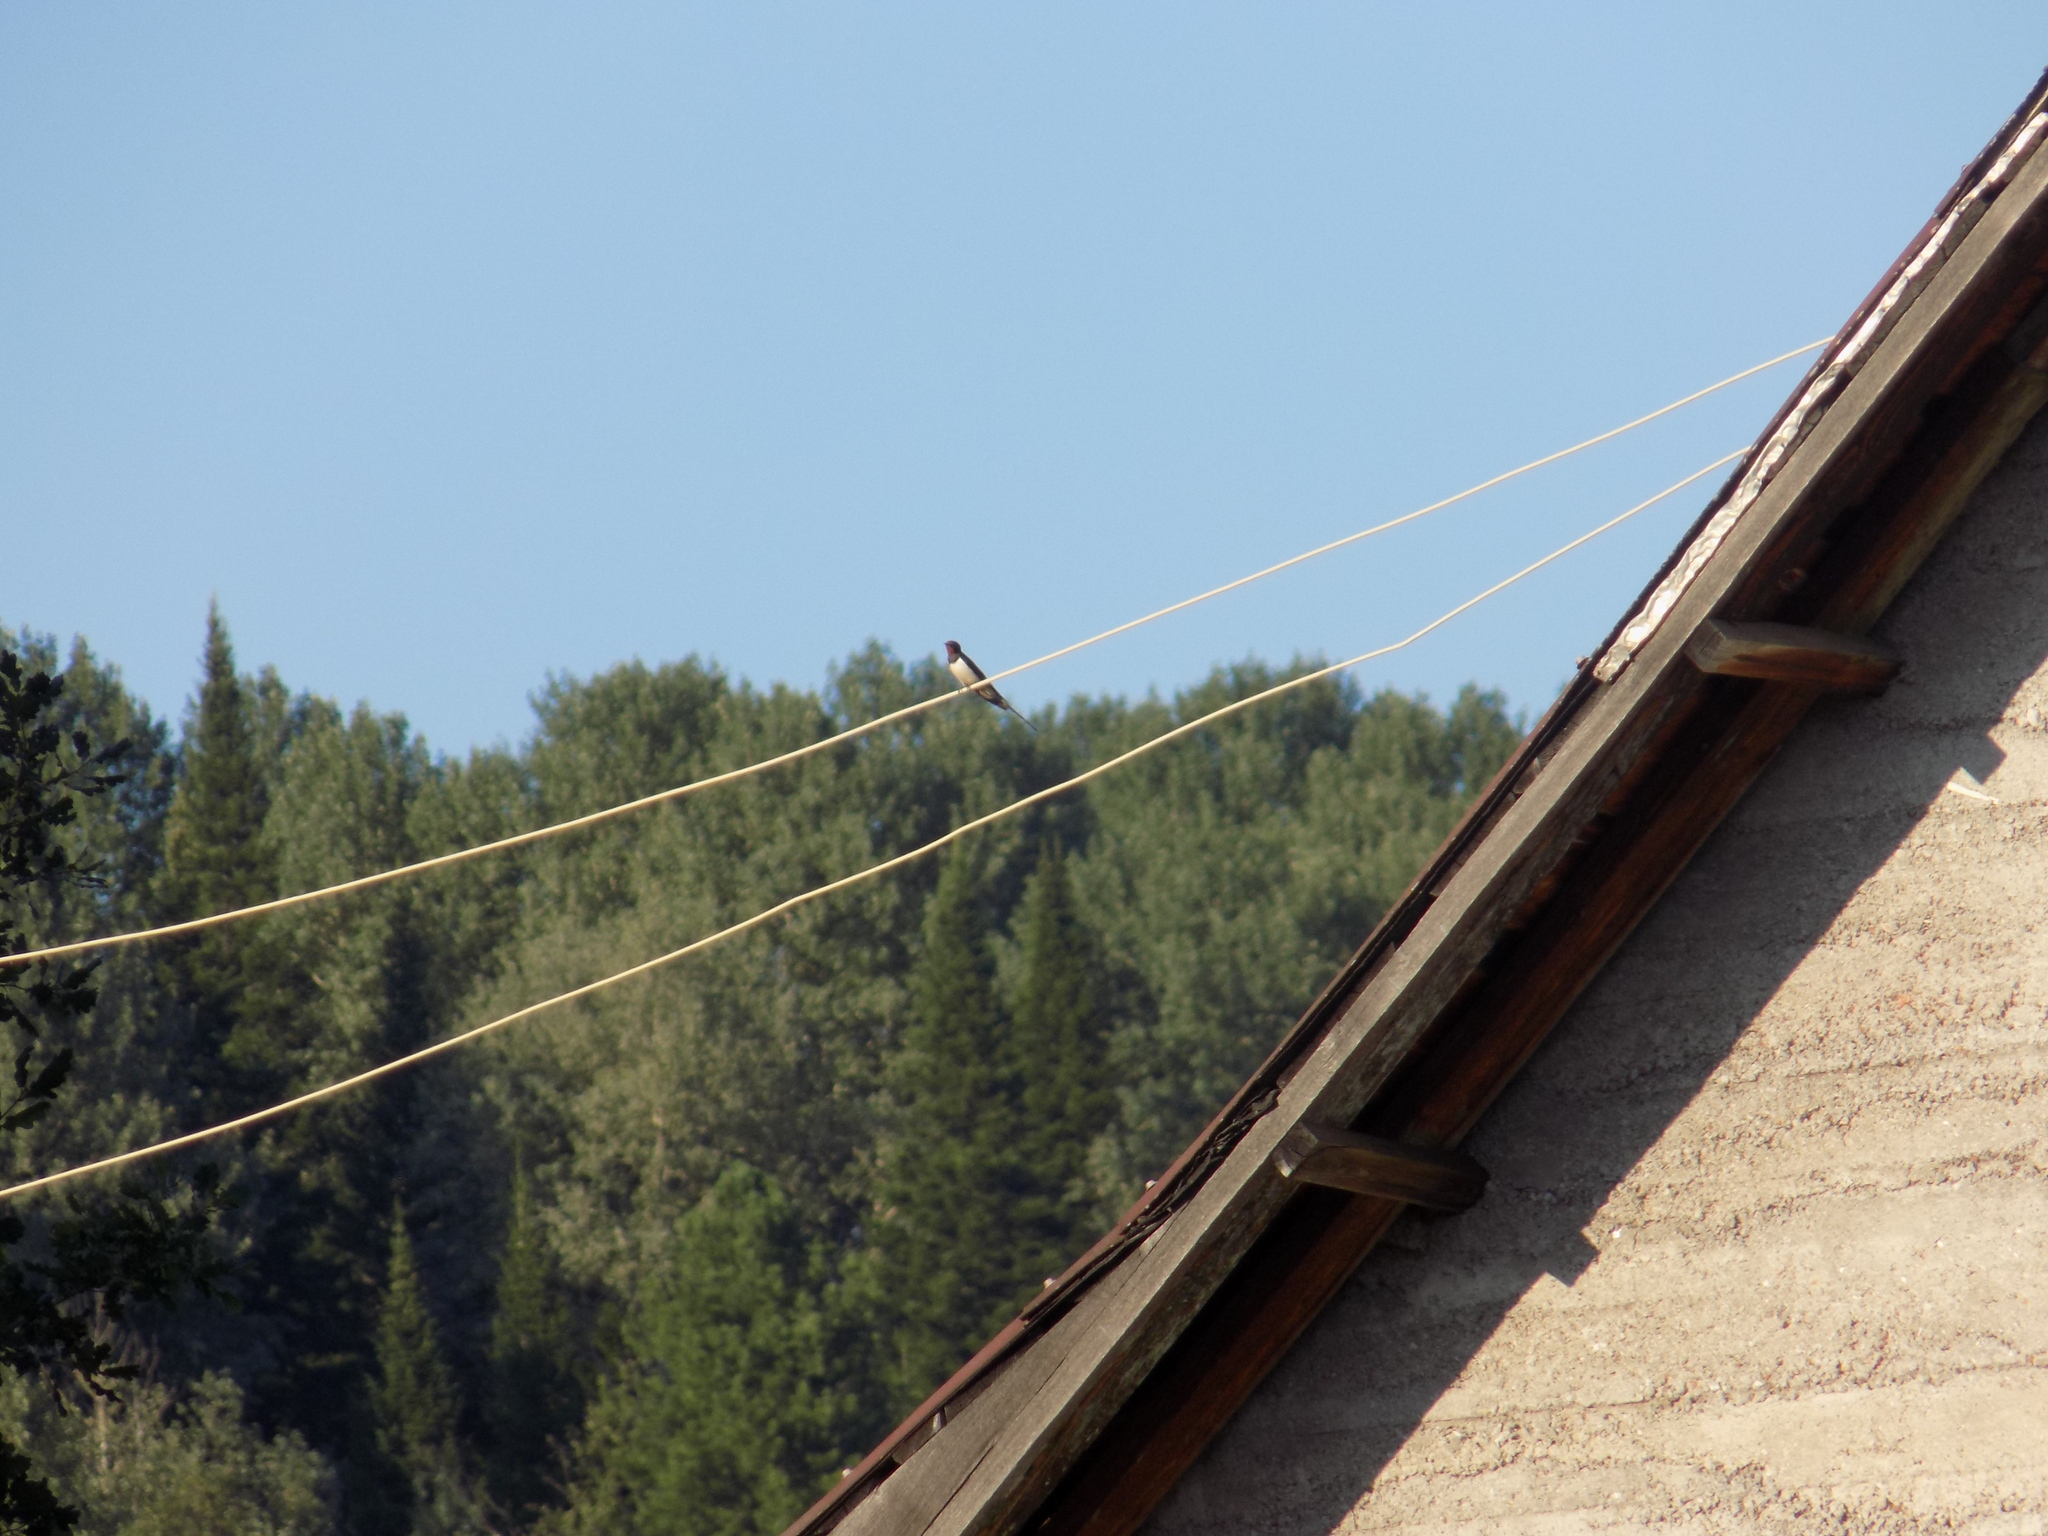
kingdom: Animalia
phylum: Chordata
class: Aves
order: Passeriformes
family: Hirundinidae
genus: Hirundo
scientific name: Hirundo rustica
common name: Barn swallow
